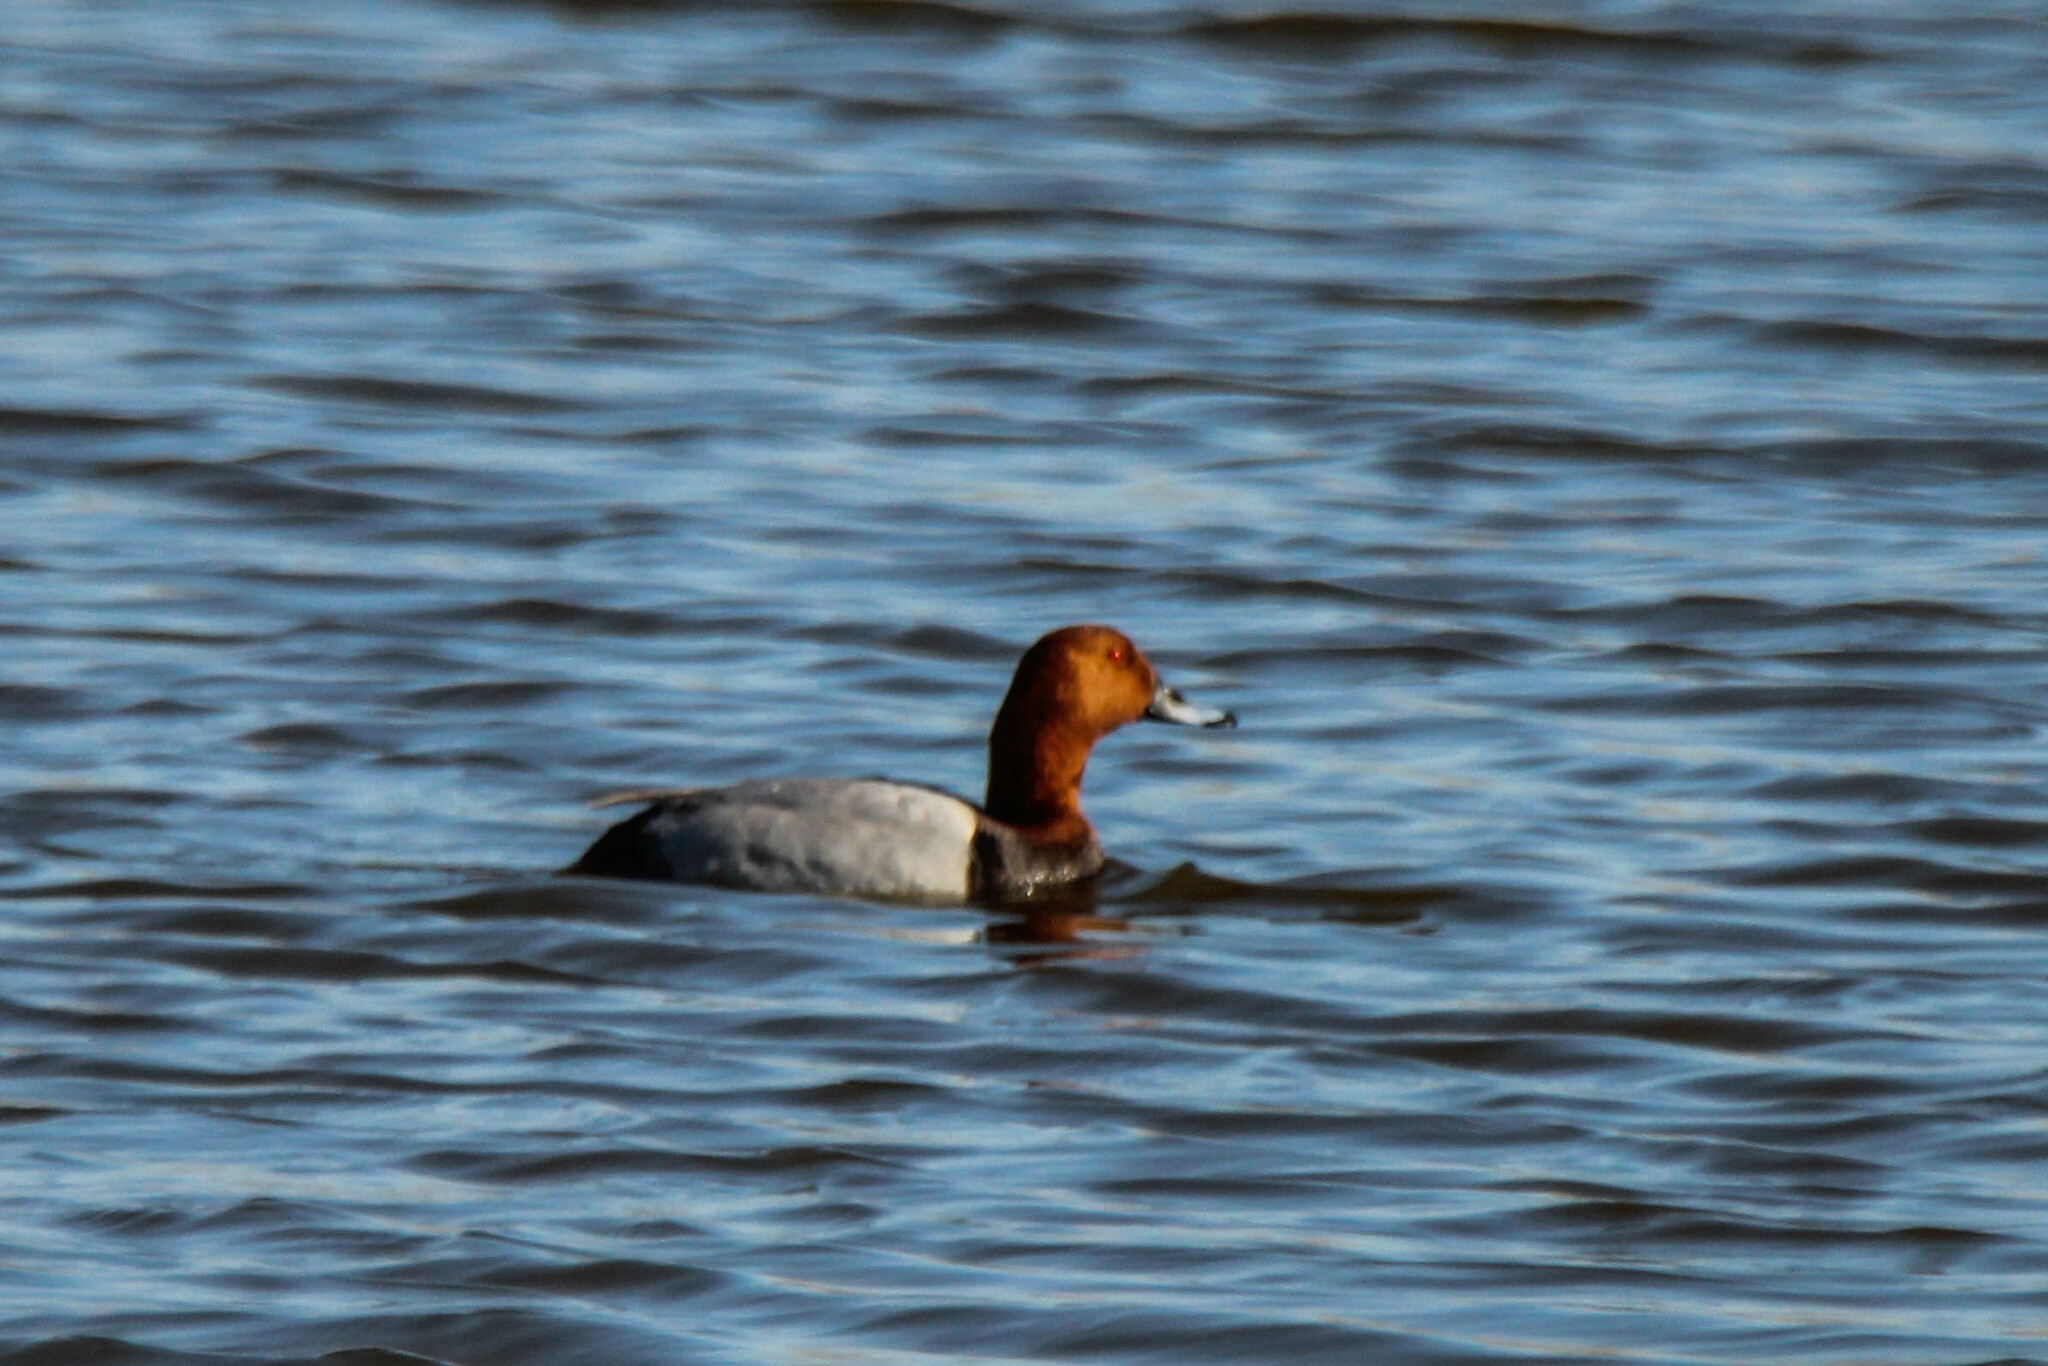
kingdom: Animalia
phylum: Chordata
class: Aves
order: Anseriformes
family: Anatidae
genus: Aythya
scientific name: Aythya ferina
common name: Common pochard
